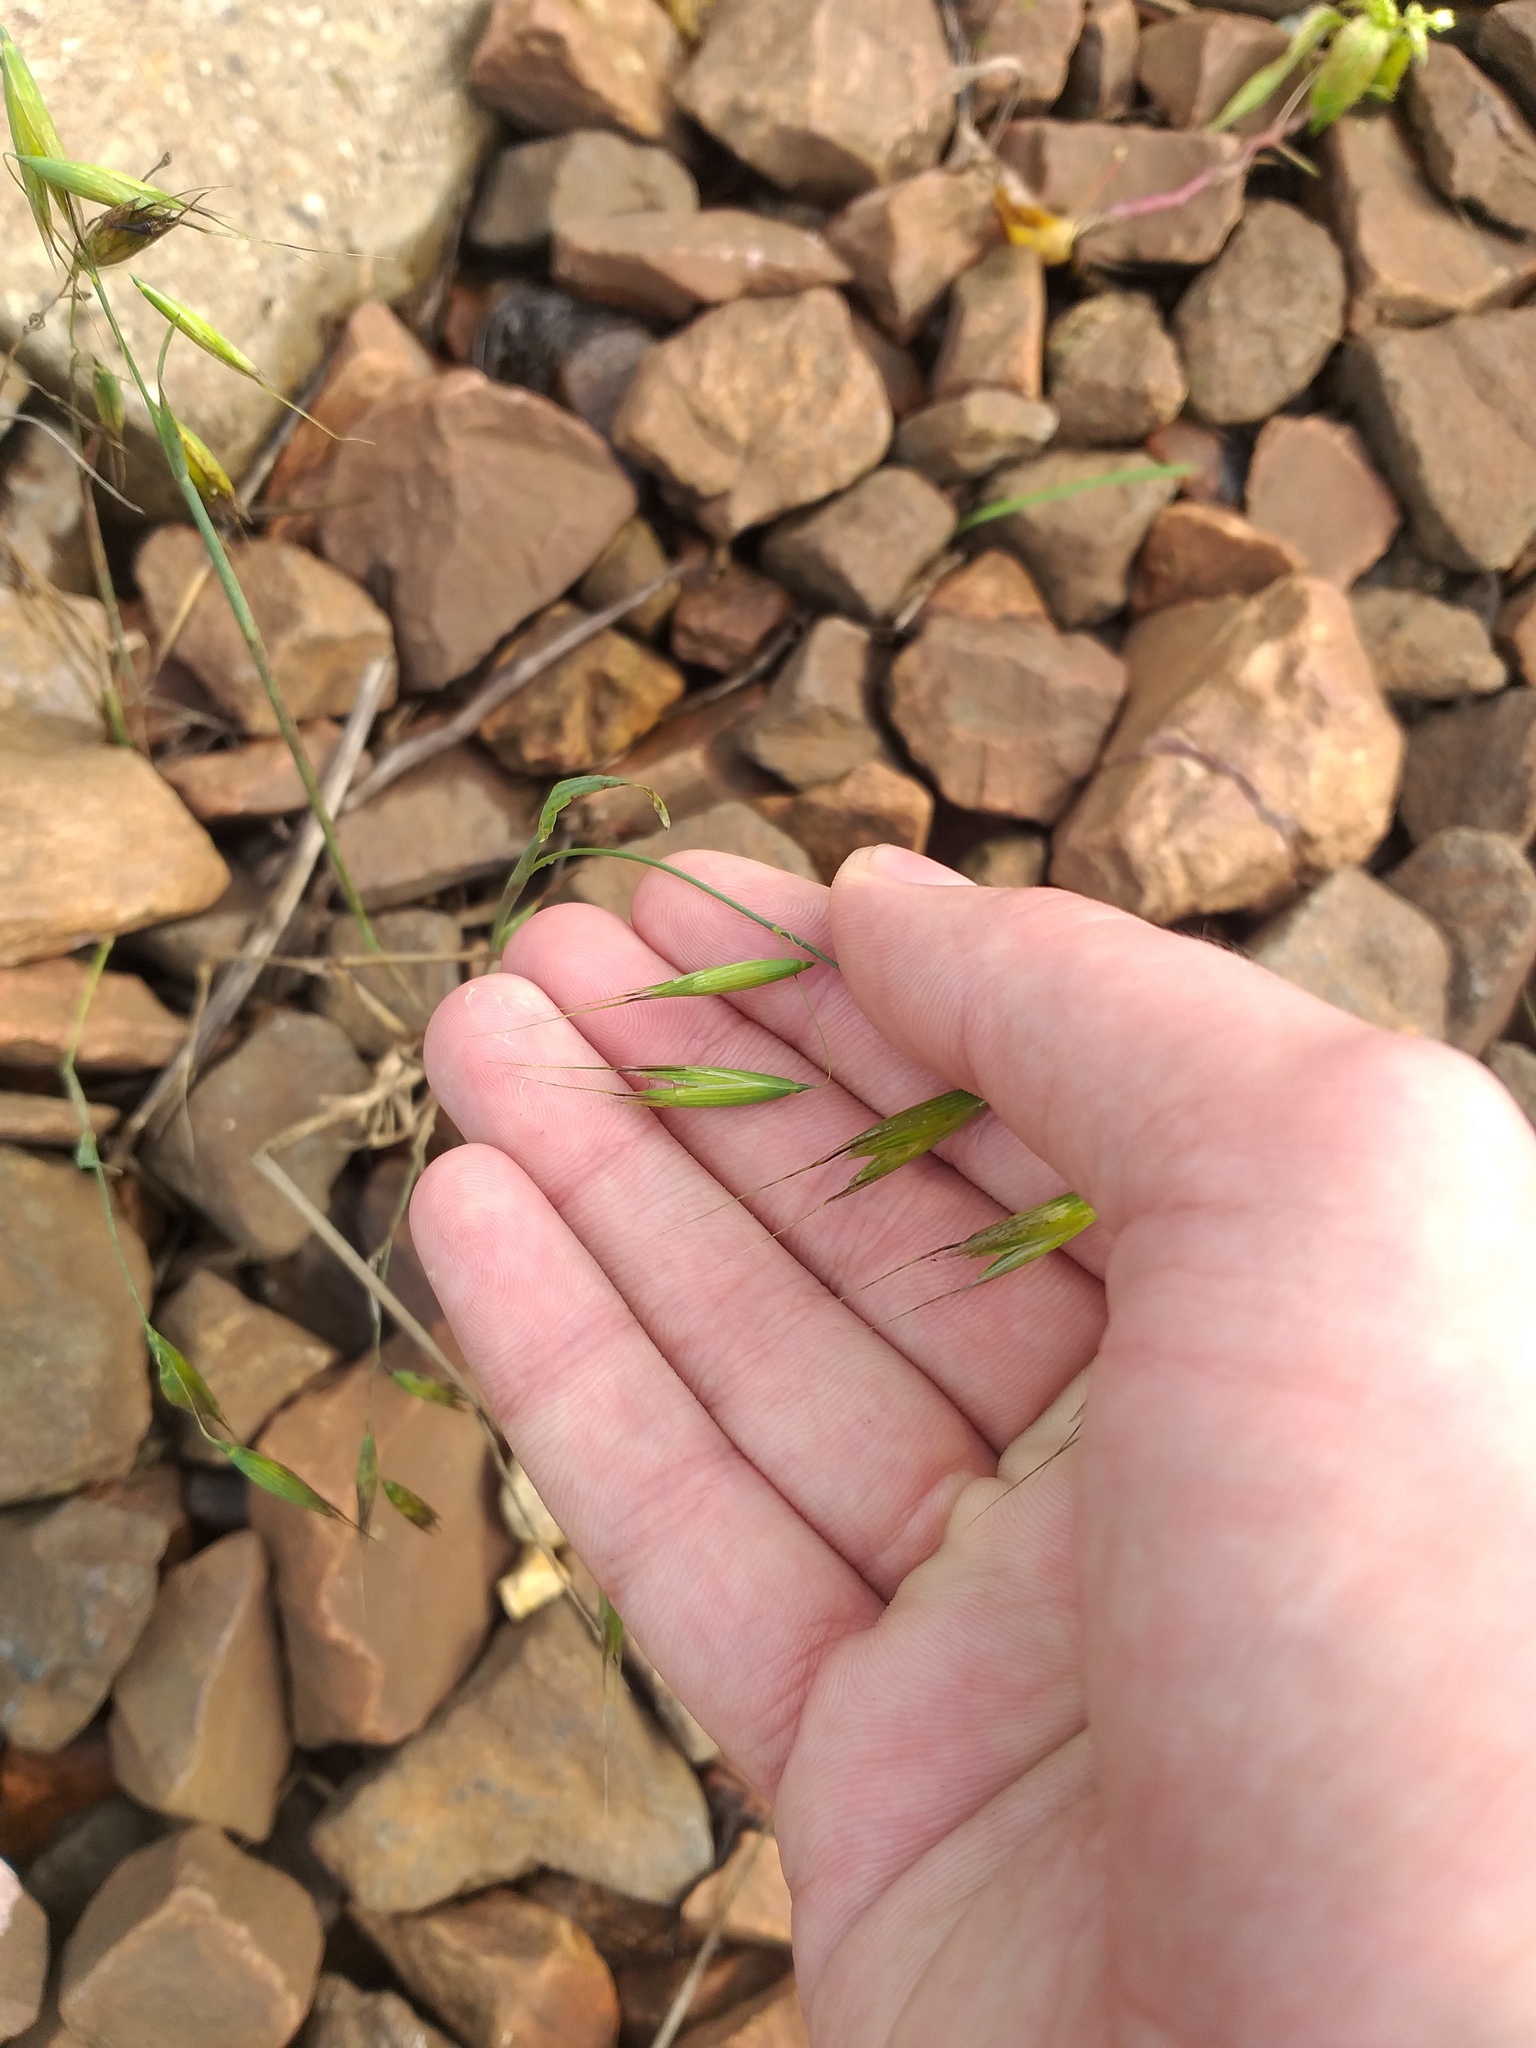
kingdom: Plantae
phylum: Tracheophyta
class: Liliopsida
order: Poales
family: Poaceae
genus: Avena
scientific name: Avena fatua
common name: Wild oat
